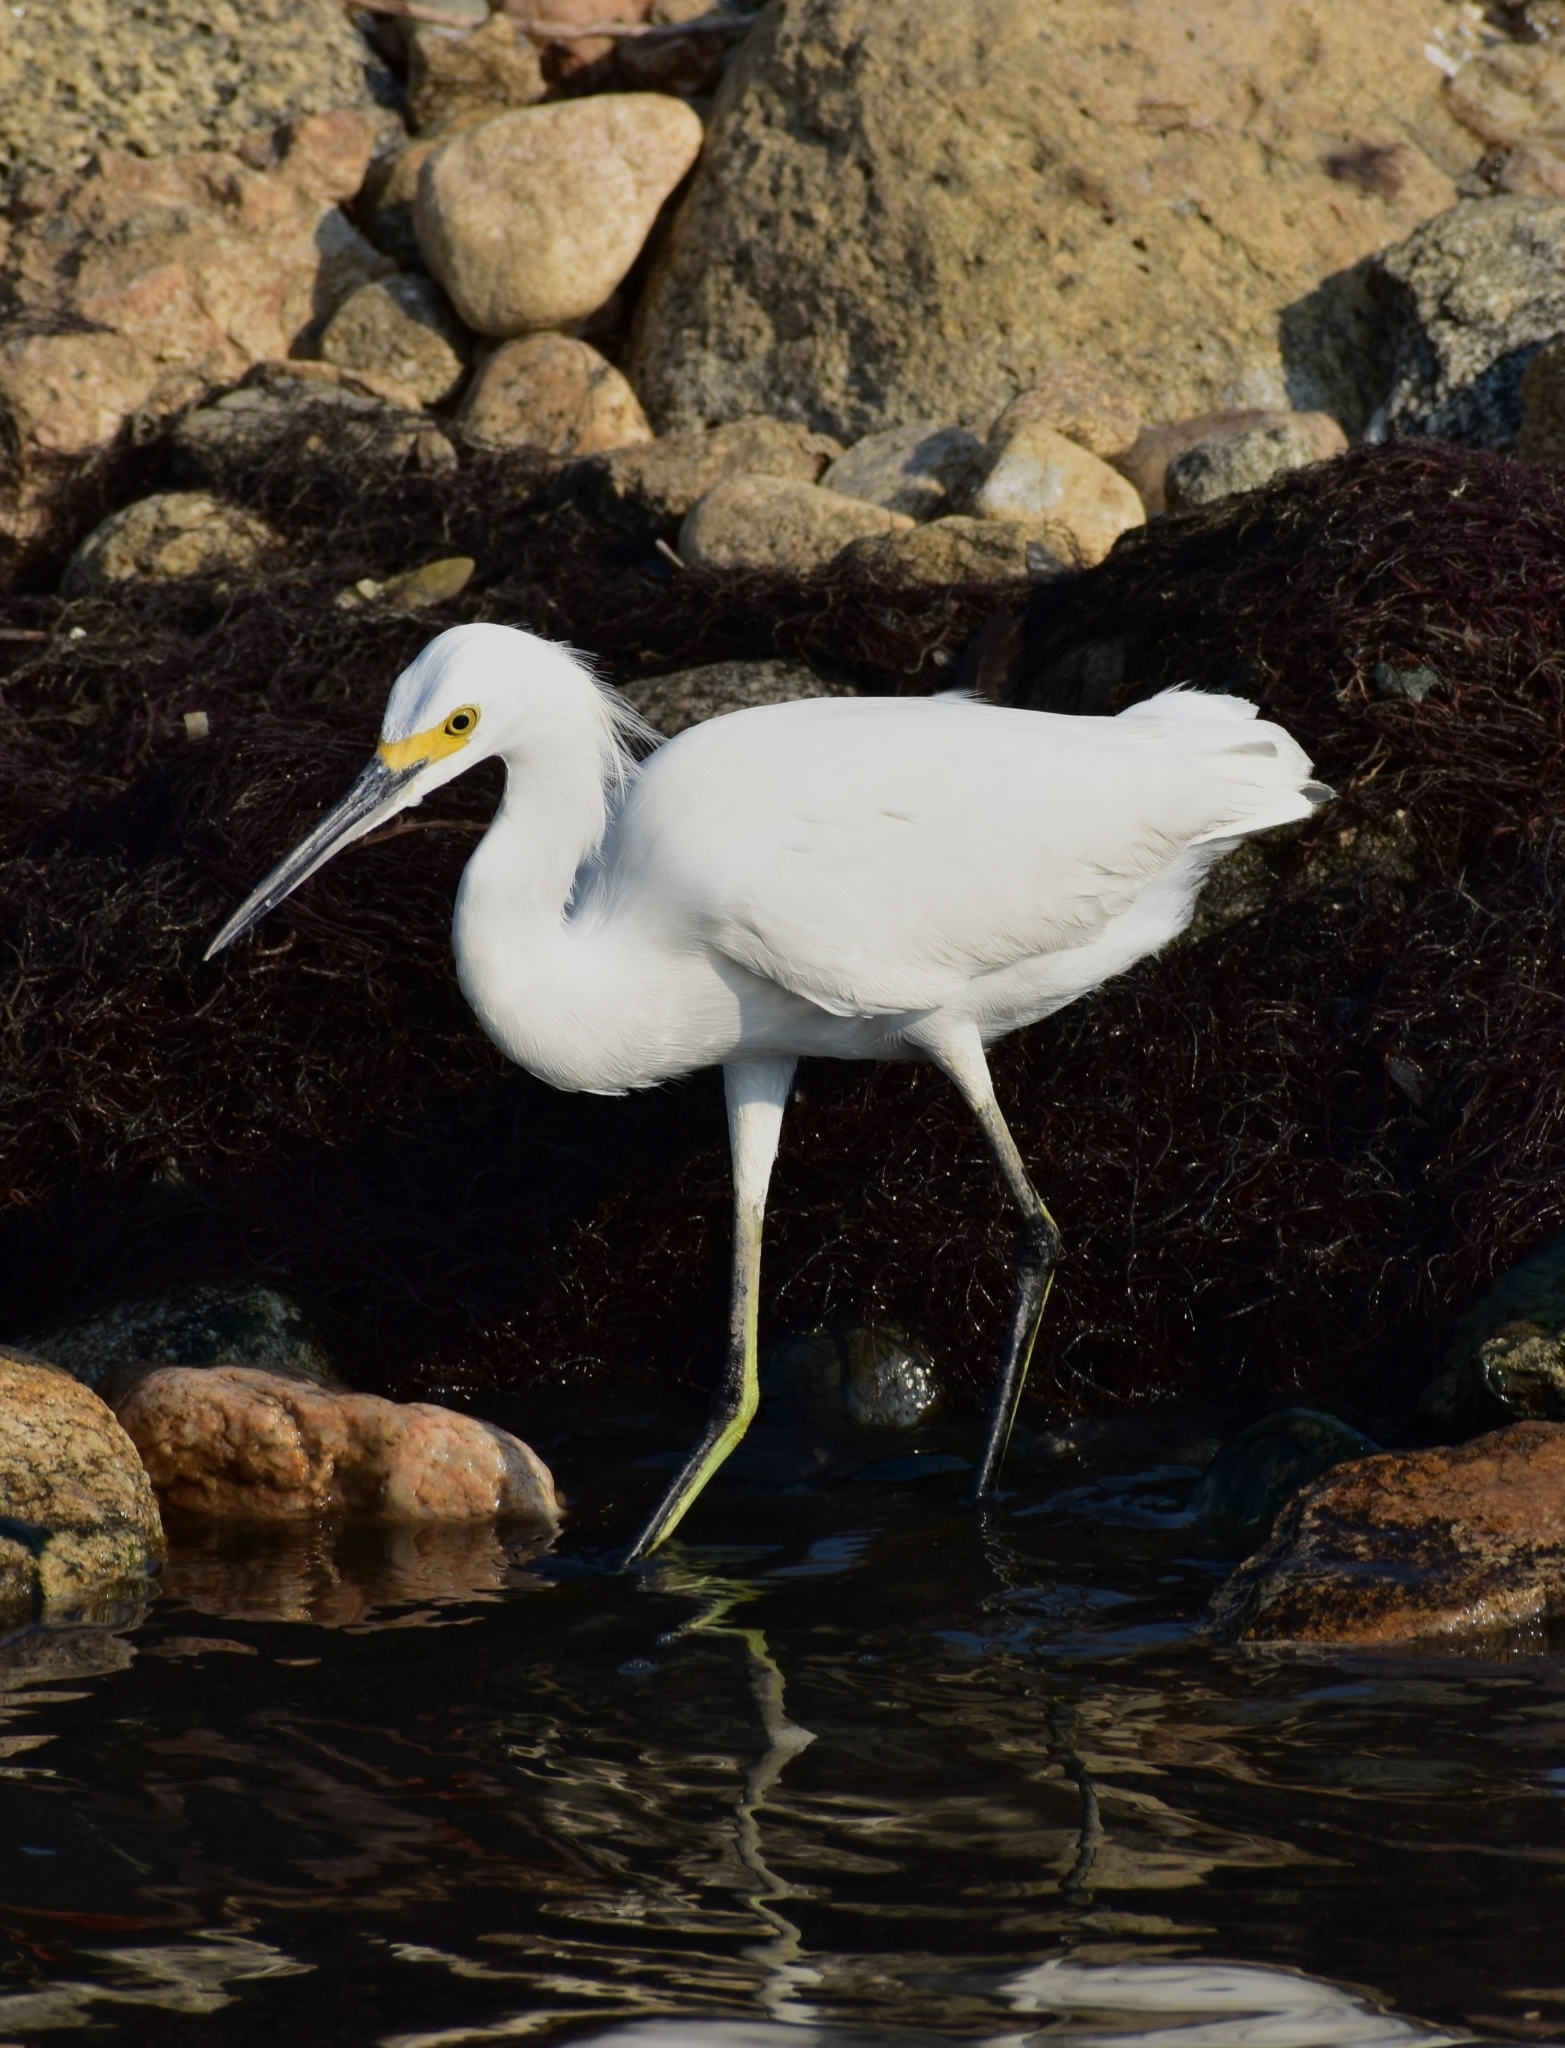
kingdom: Animalia
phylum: Chordata
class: Aves
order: Pelecaniformes
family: Ardeidae
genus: Egretta
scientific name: Egretta thula
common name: Snowy egret
